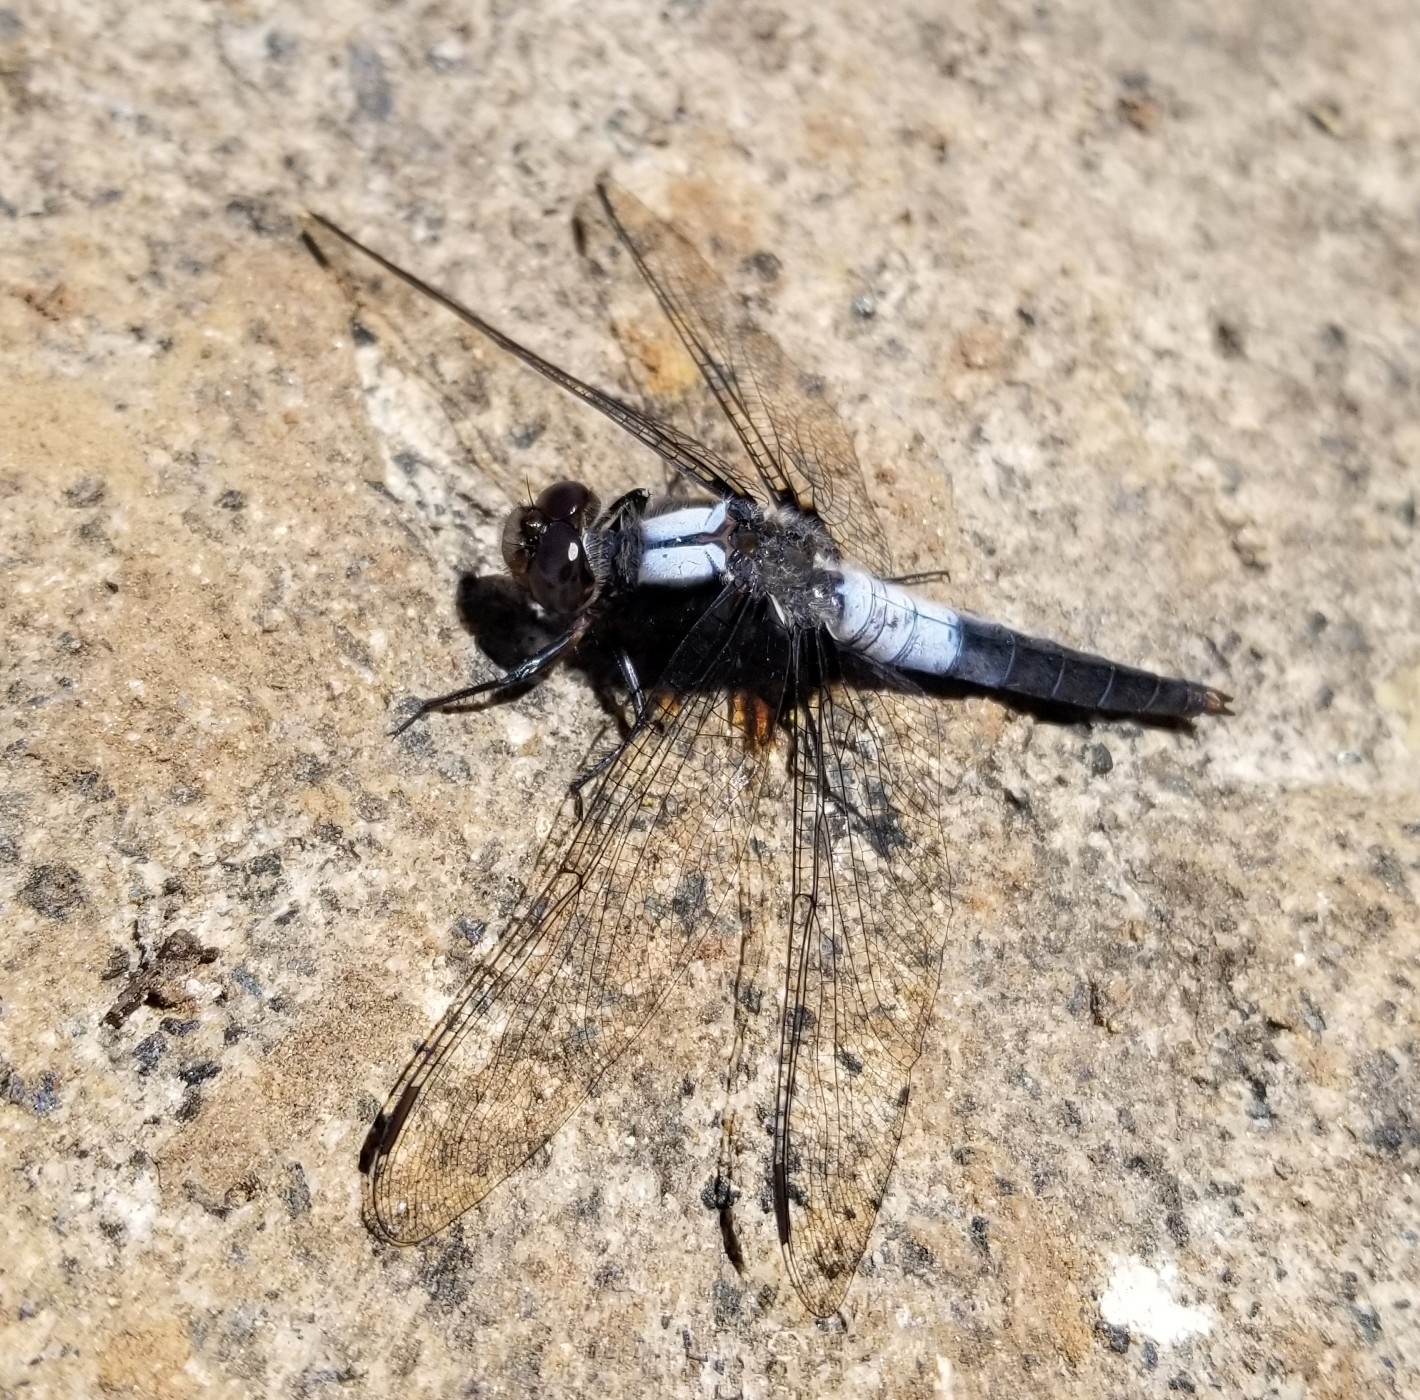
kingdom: Animalia
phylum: Arthropoda
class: Insecta
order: Odonata
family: Libellulidae
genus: Ladona
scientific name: Ladona julia
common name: Chalk-fronted corporal
